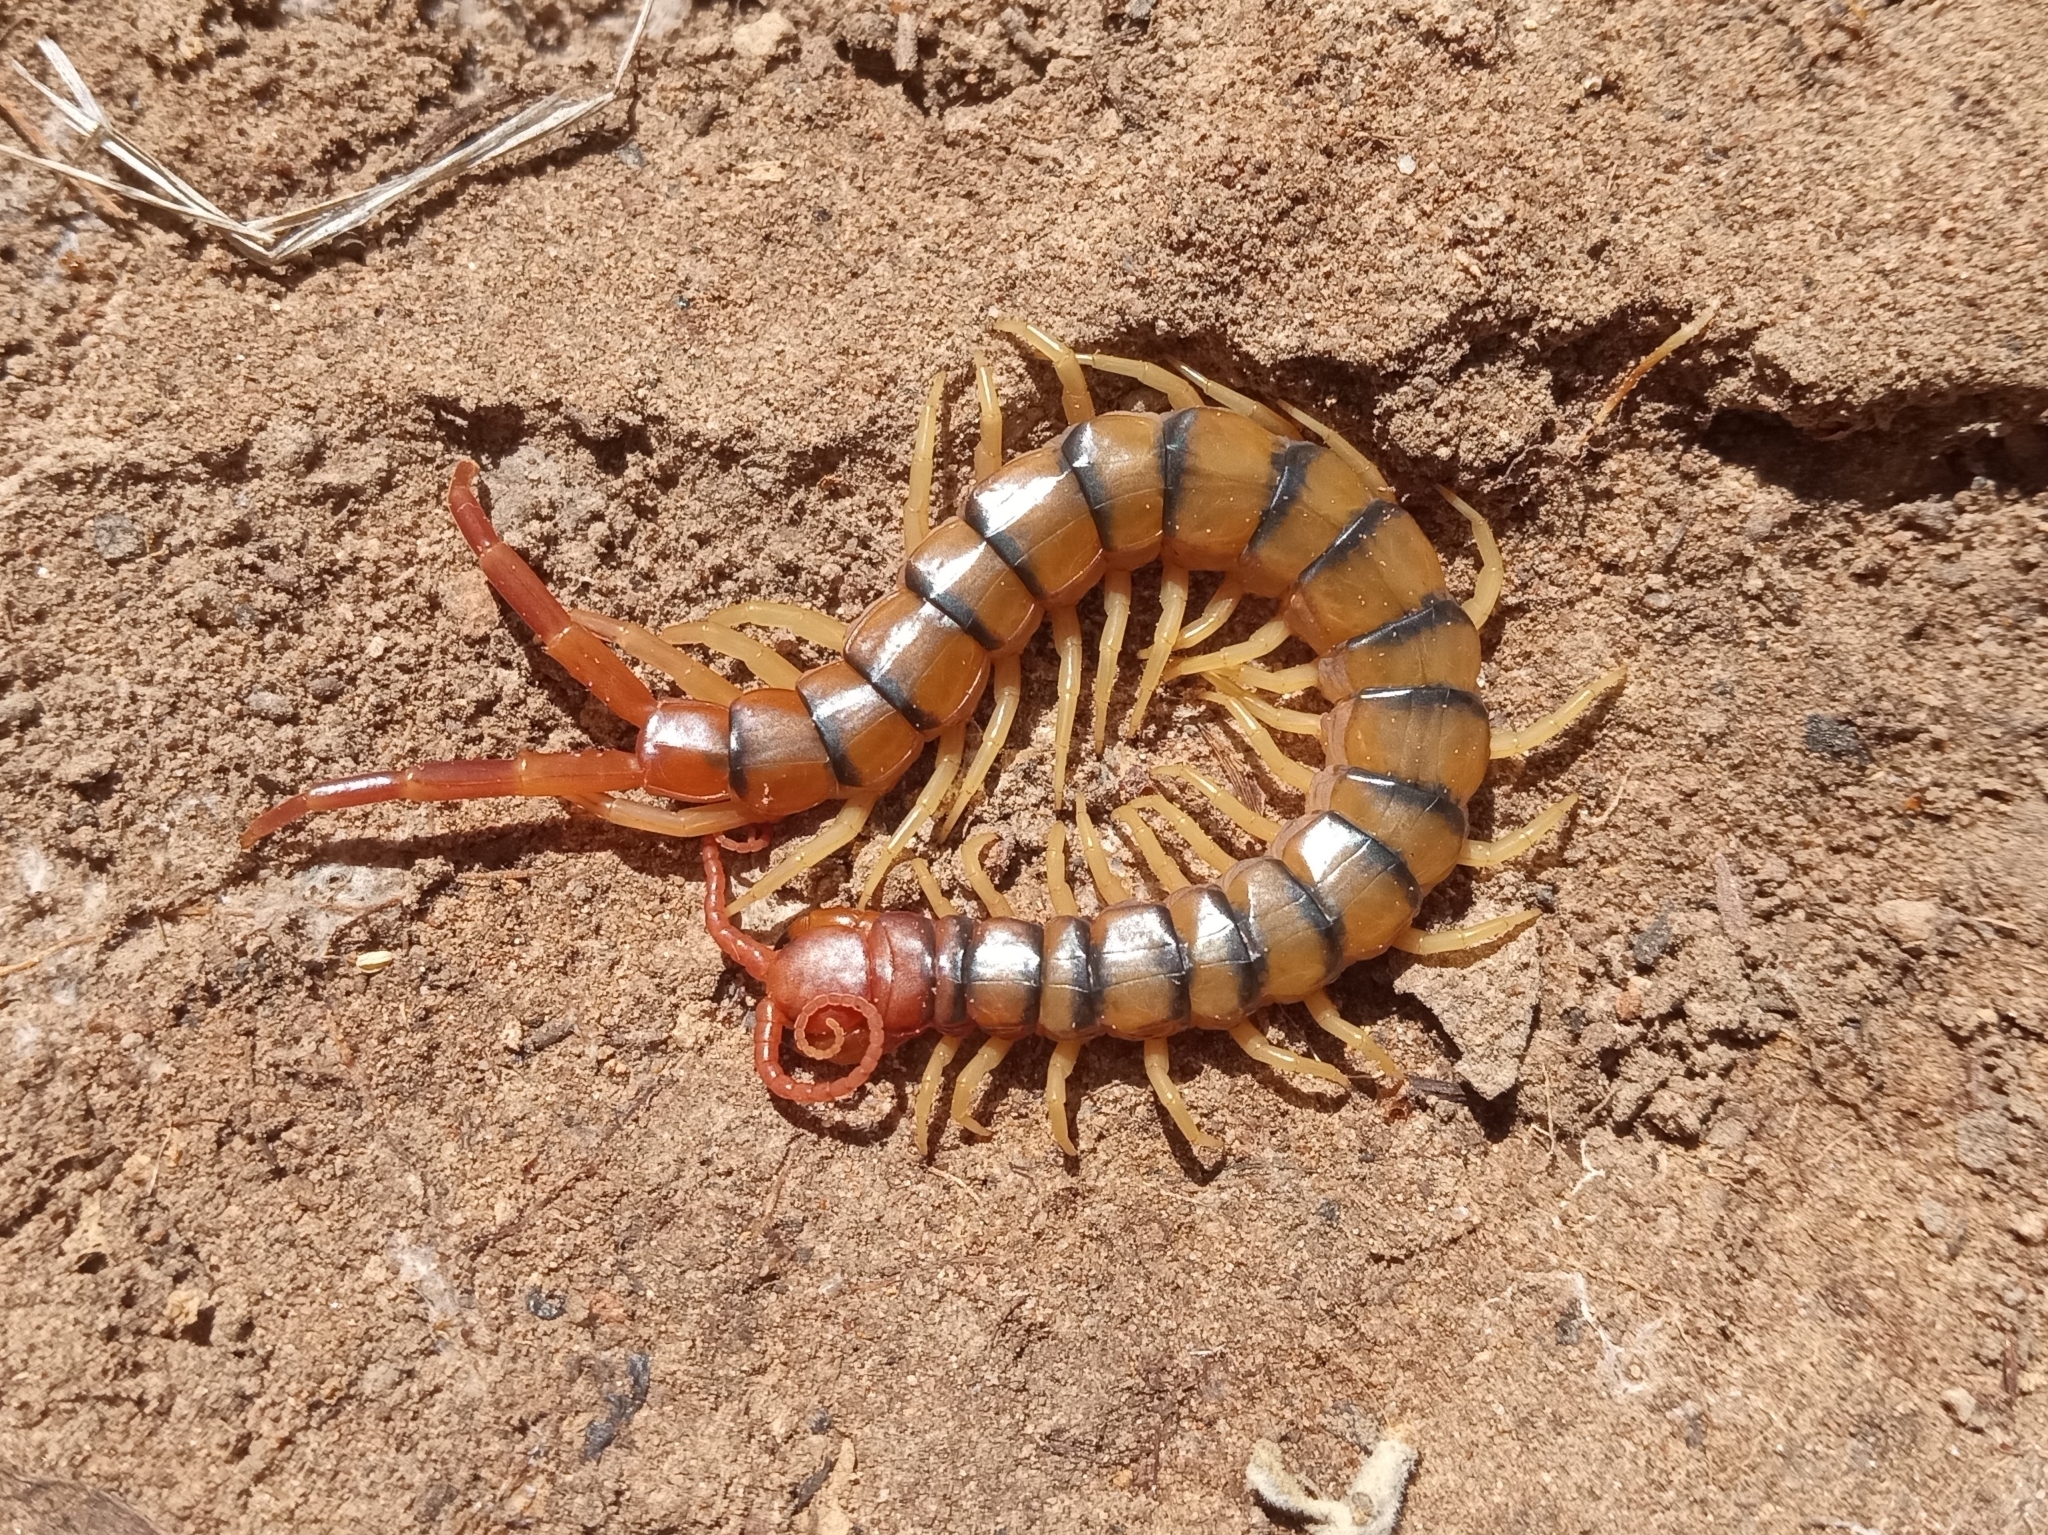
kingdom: Animalia
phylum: Arthropoda
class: Chilopoda
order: Scolopendromorpha
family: Scolopendridae
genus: Scolopendra
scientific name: Scolopendra polymorpha
